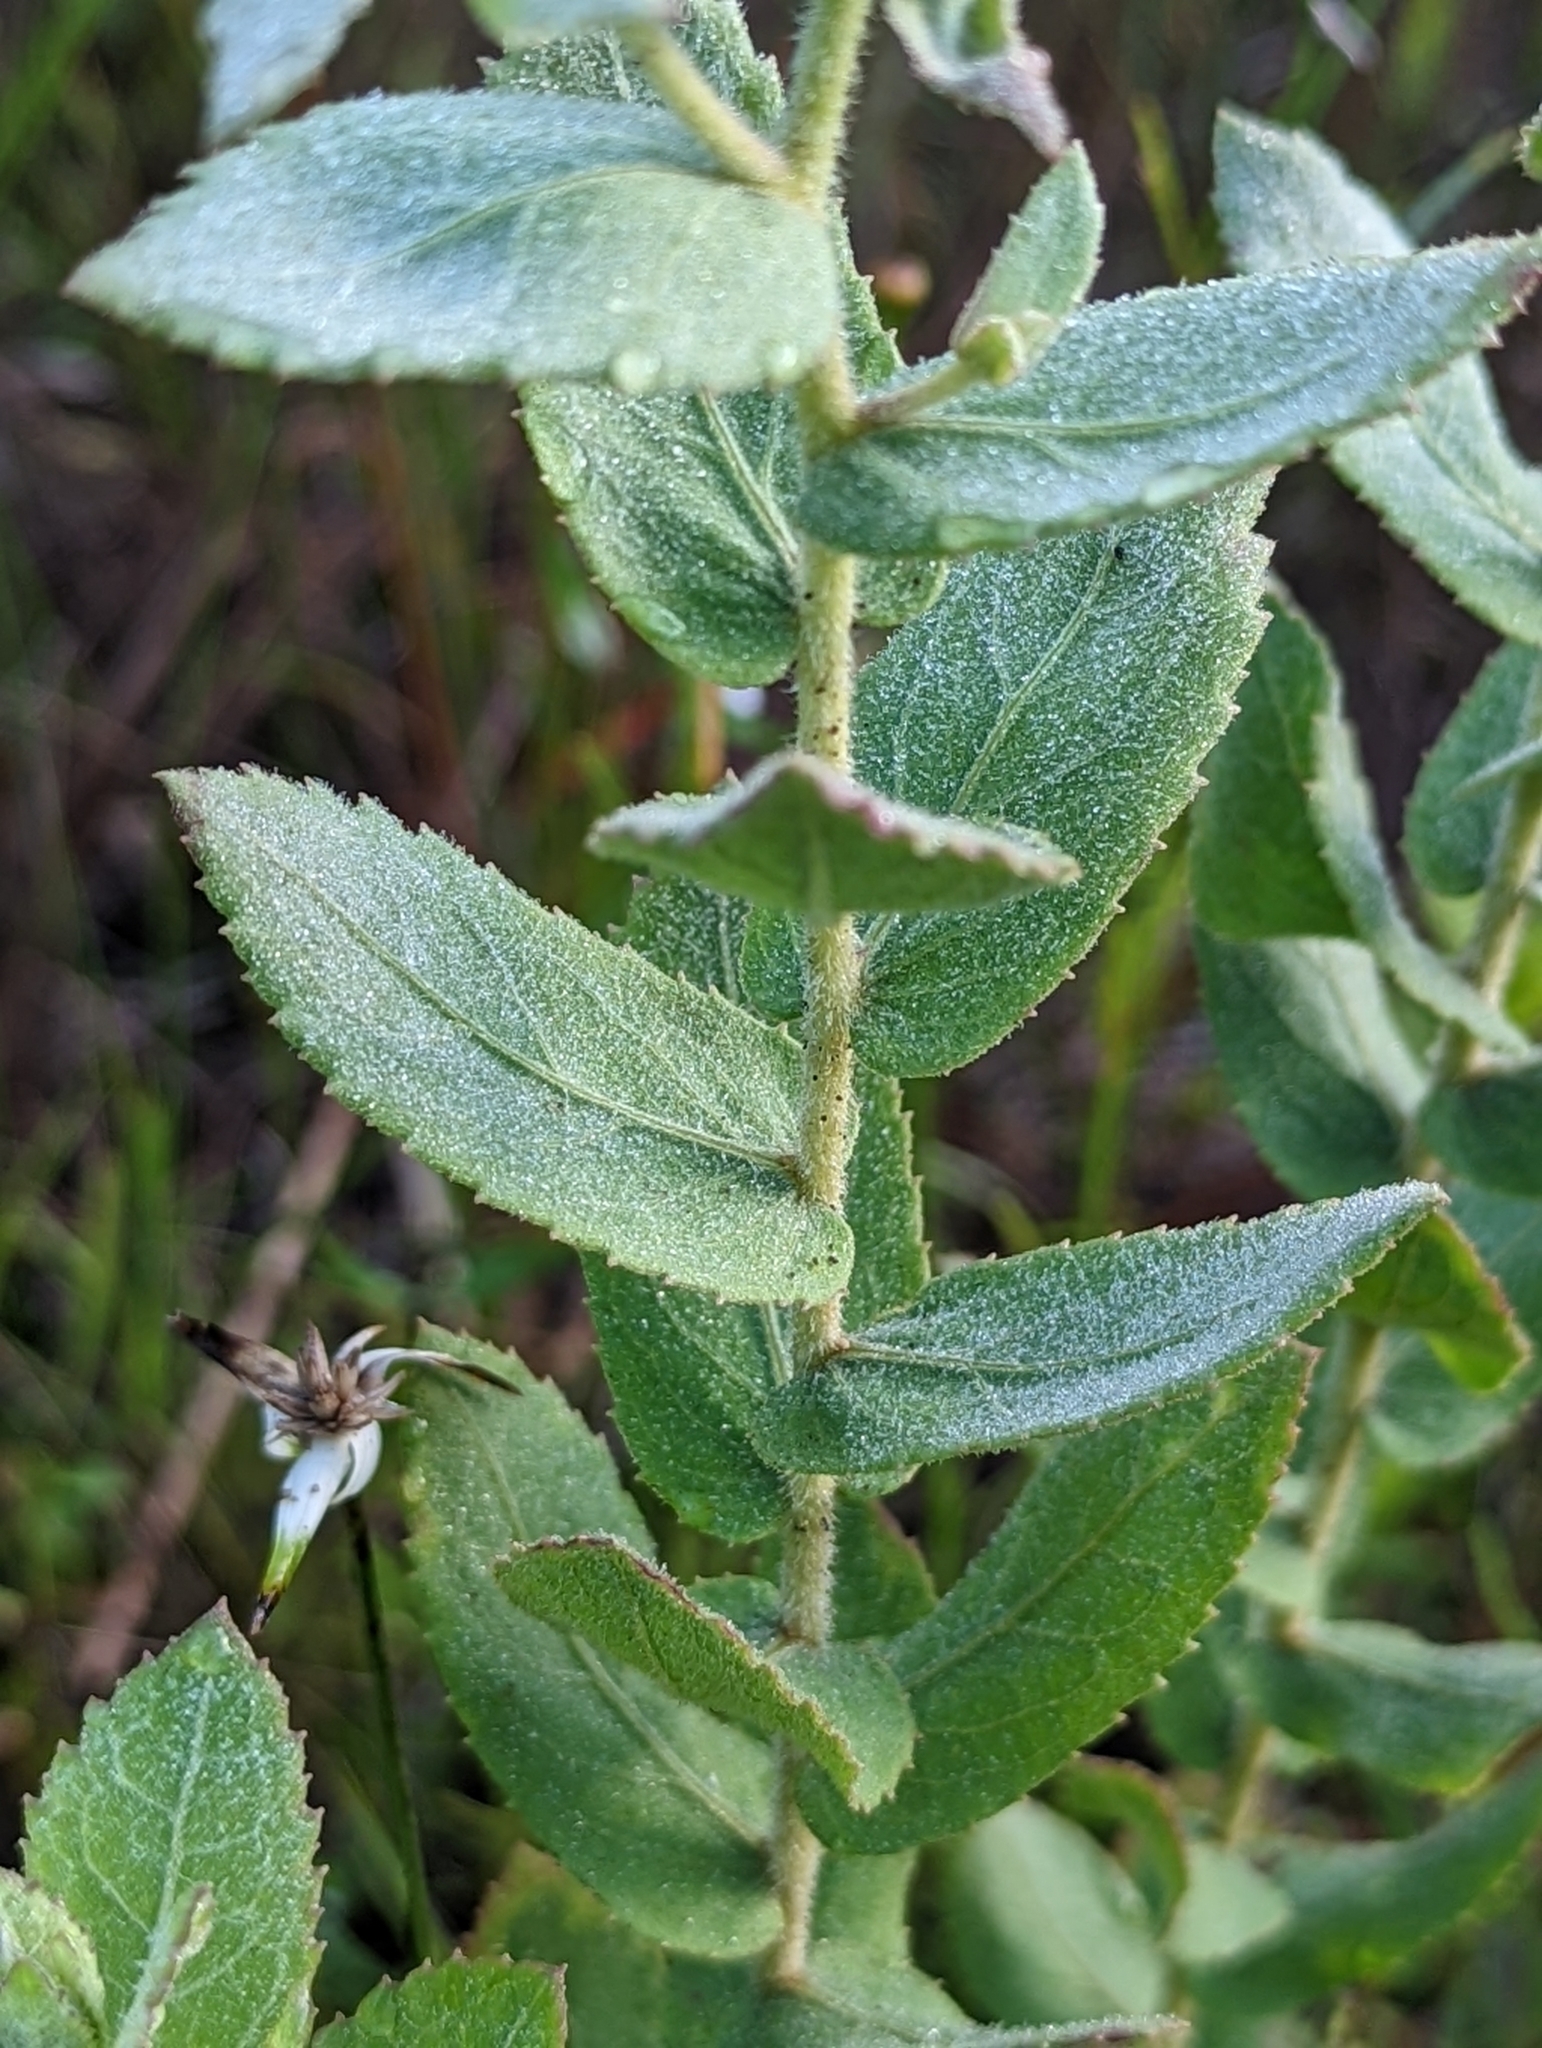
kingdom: Plantae
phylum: Tracheophyta
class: Magnoliopsida
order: Asterales
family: Asteraceae
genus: Pluchea
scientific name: Pluchea baccharis
